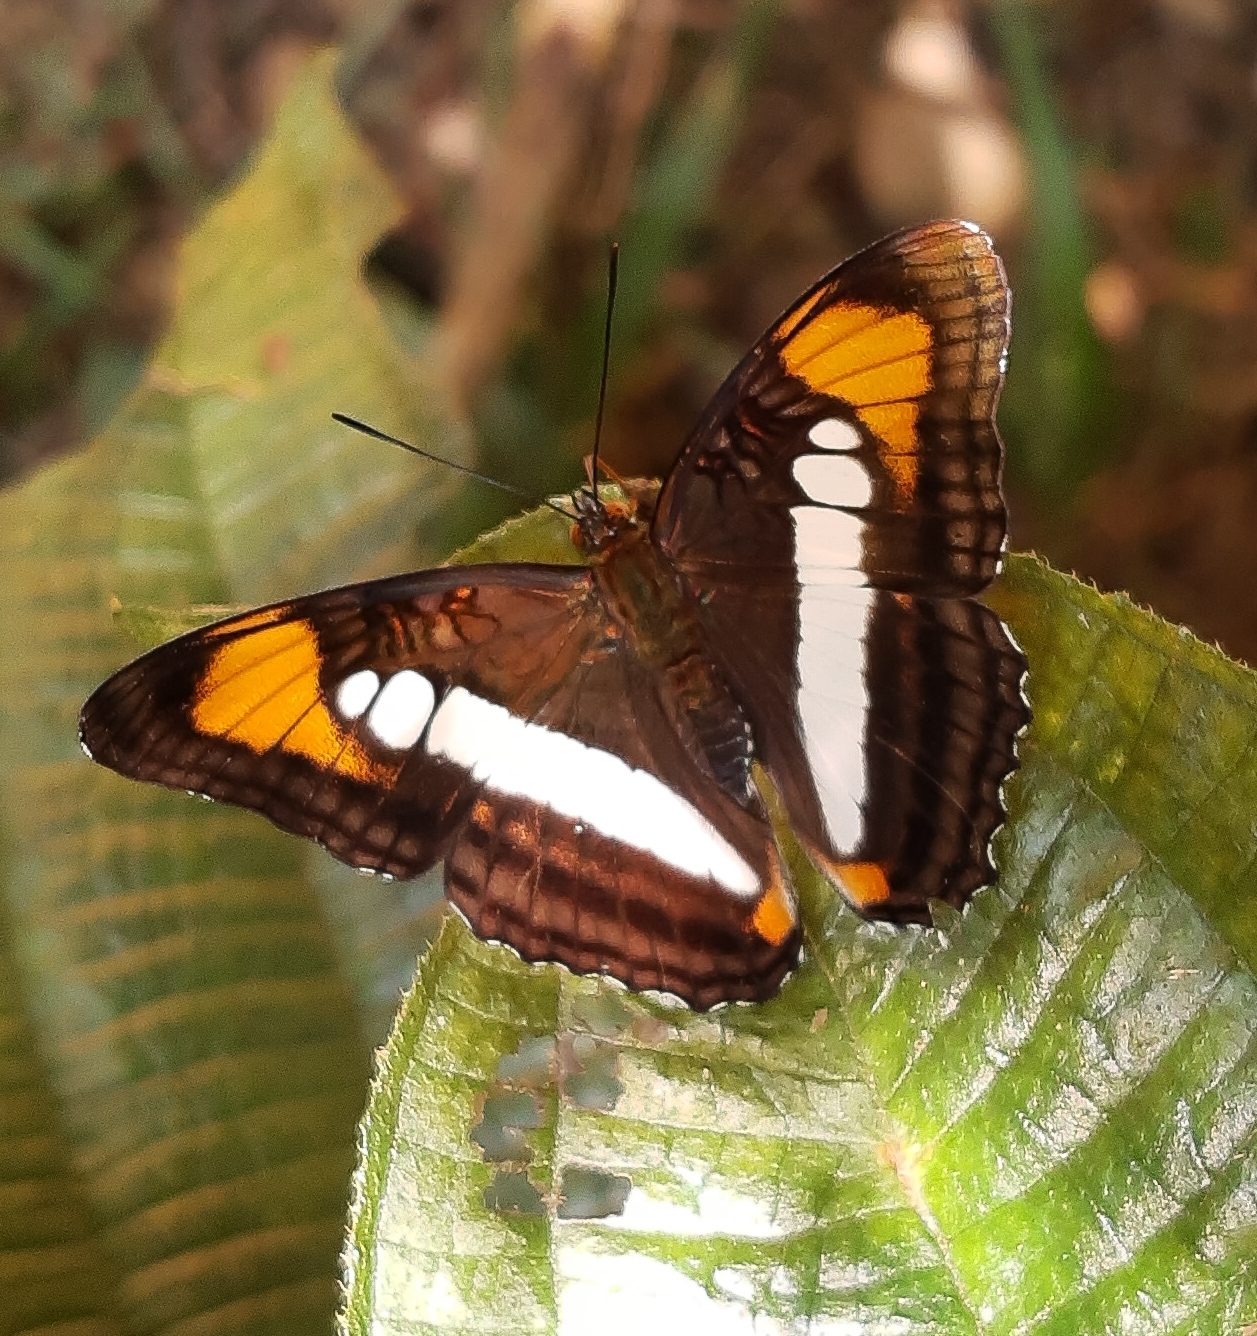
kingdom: Animalia
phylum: Arthropoda
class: Insecta
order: Lepidoptera
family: Nymphalidae
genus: Limenitis
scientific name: Limenitis serpa
